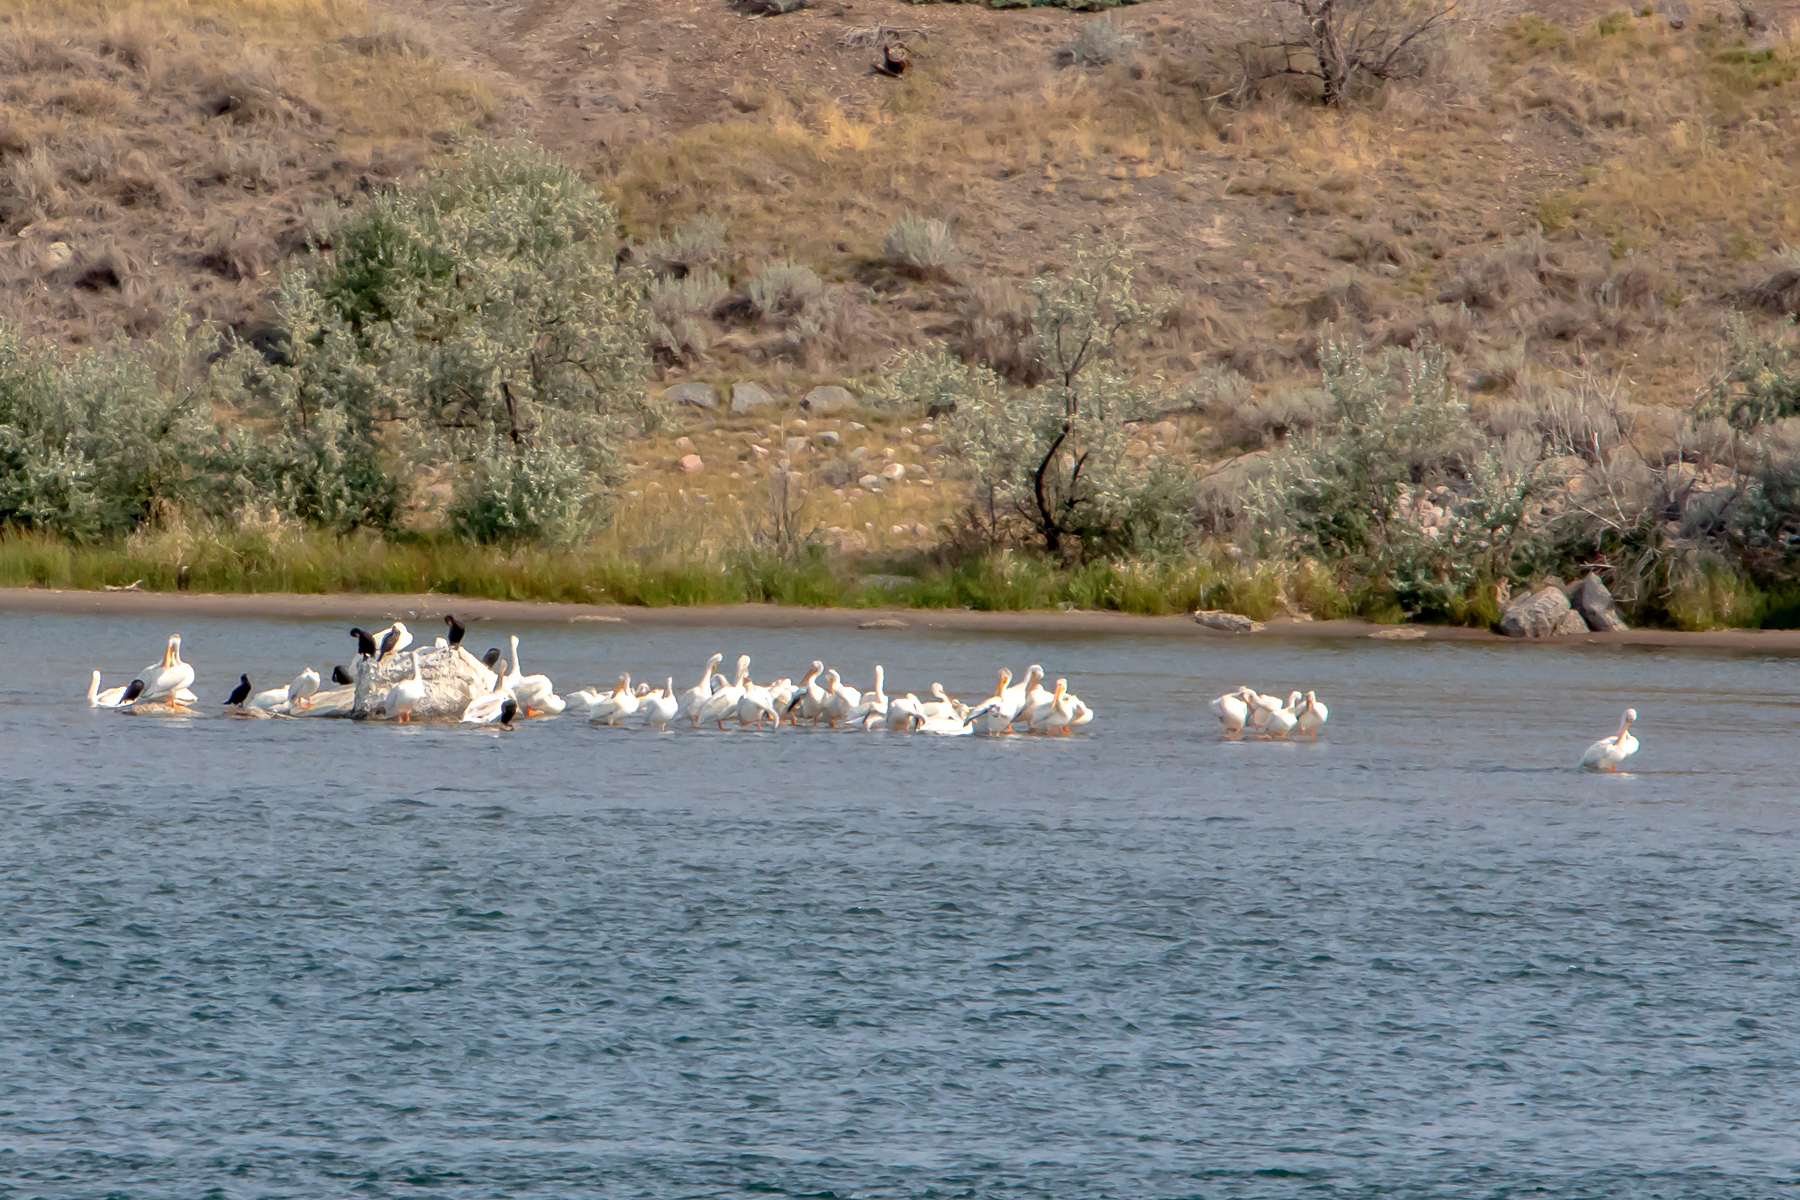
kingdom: Animalia
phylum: Chordata
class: Aves
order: Pelecaniformes
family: Pelecanidae
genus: Pelecanus
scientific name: Pelecanus erythrorhynchos
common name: American white pelican
